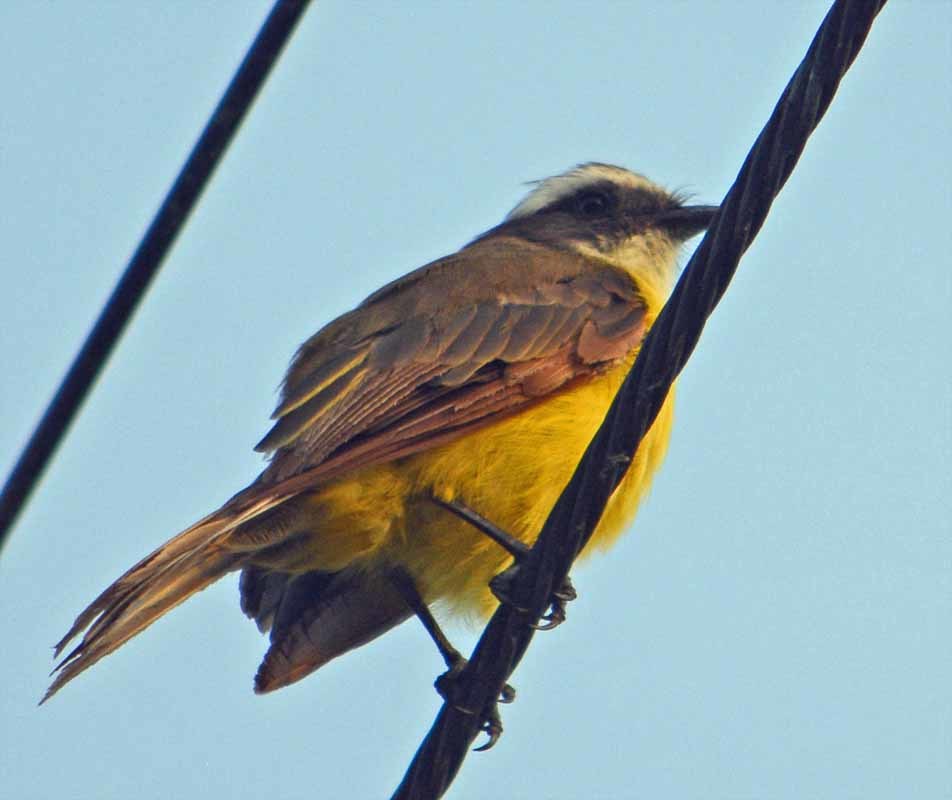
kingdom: Animalia
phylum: Chordata
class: Aves
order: Passeriformes
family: Tyrannidae
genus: Myiozetetes
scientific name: Myiozetetes similis
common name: Social flycatcher
